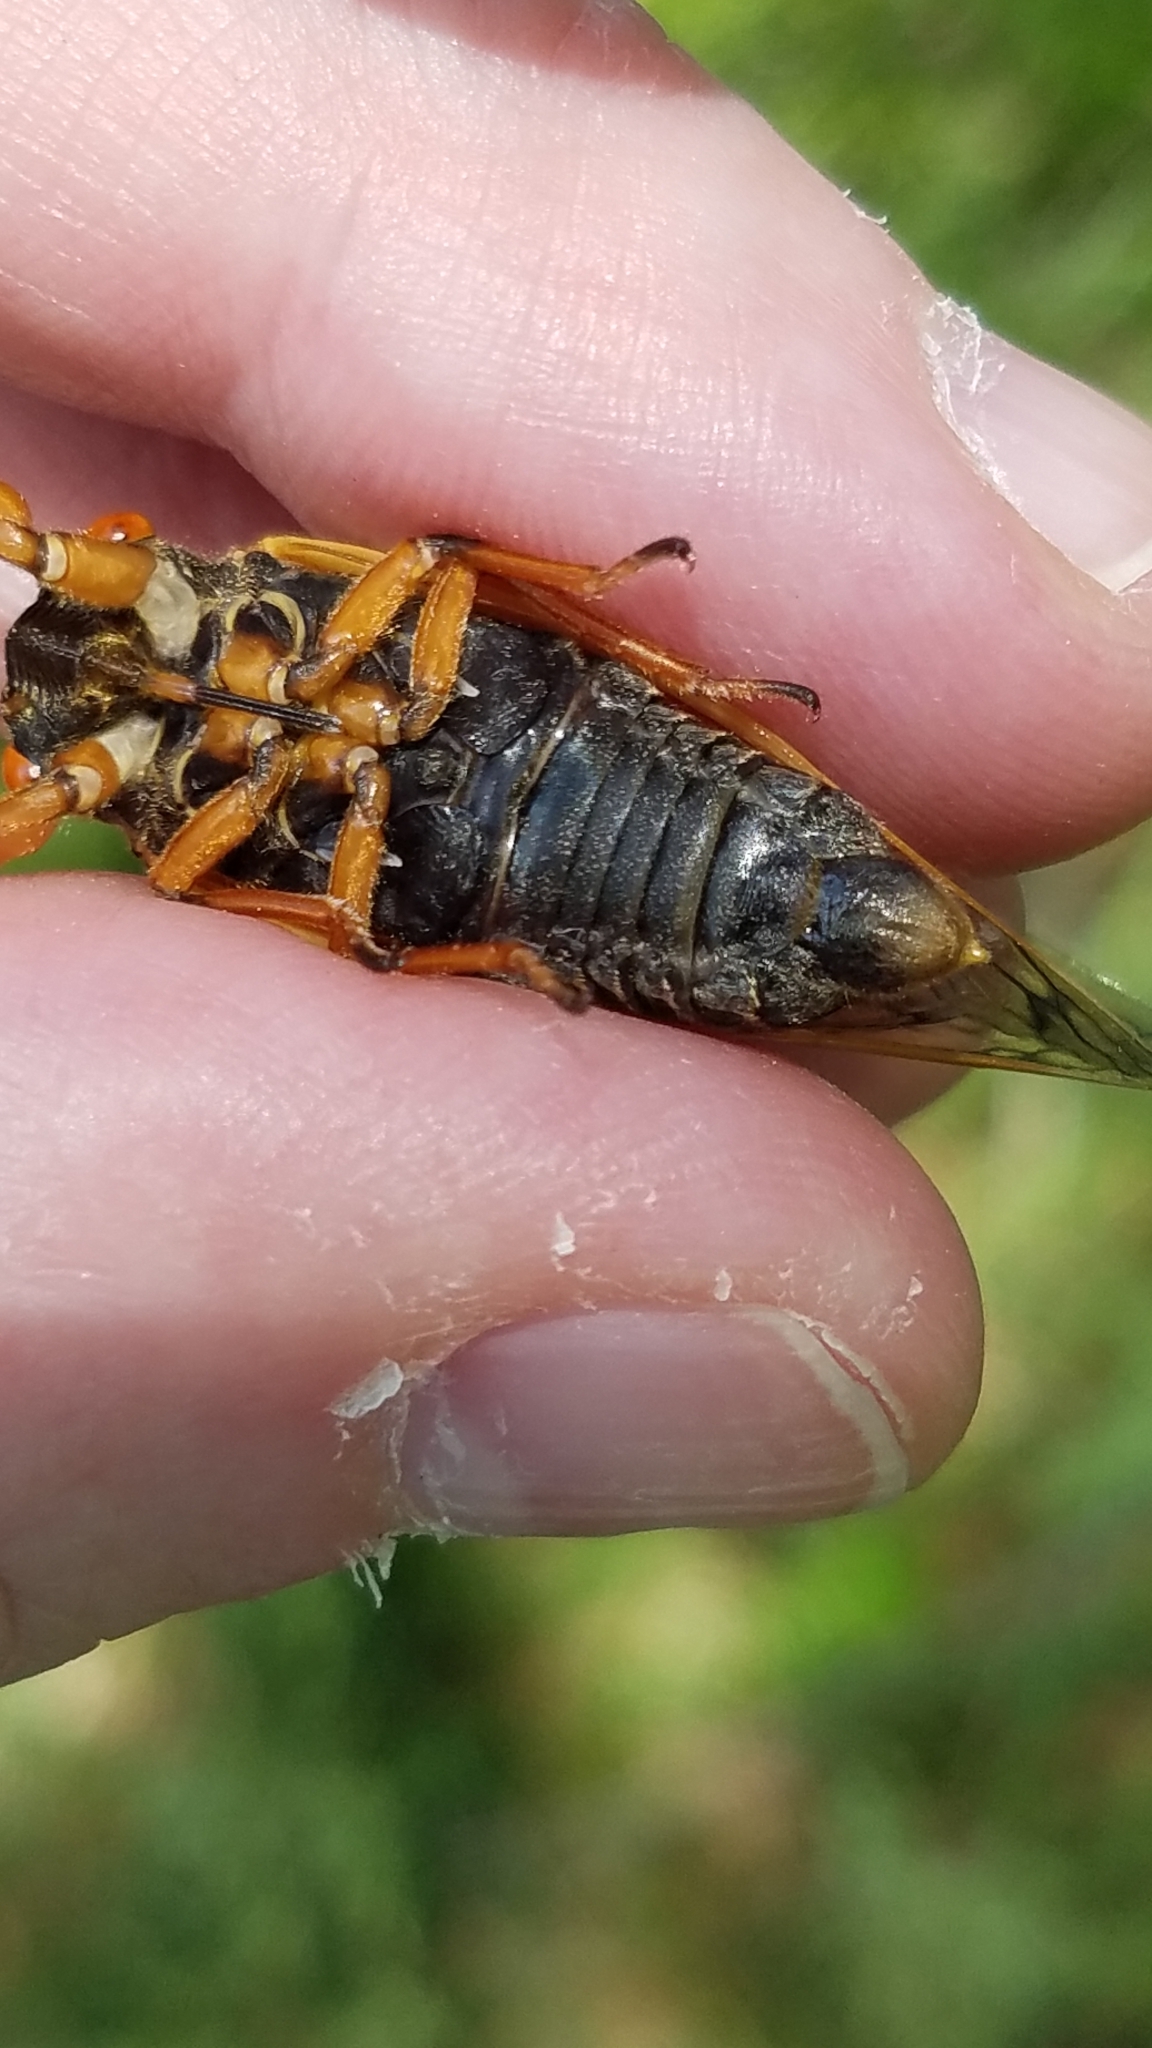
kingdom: Animalia
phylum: Arthropoda
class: Insecta
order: Hemiptera
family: Cicadidae
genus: Magicicada
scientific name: Magicicada cassini
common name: Cassin's 17-year cicada
